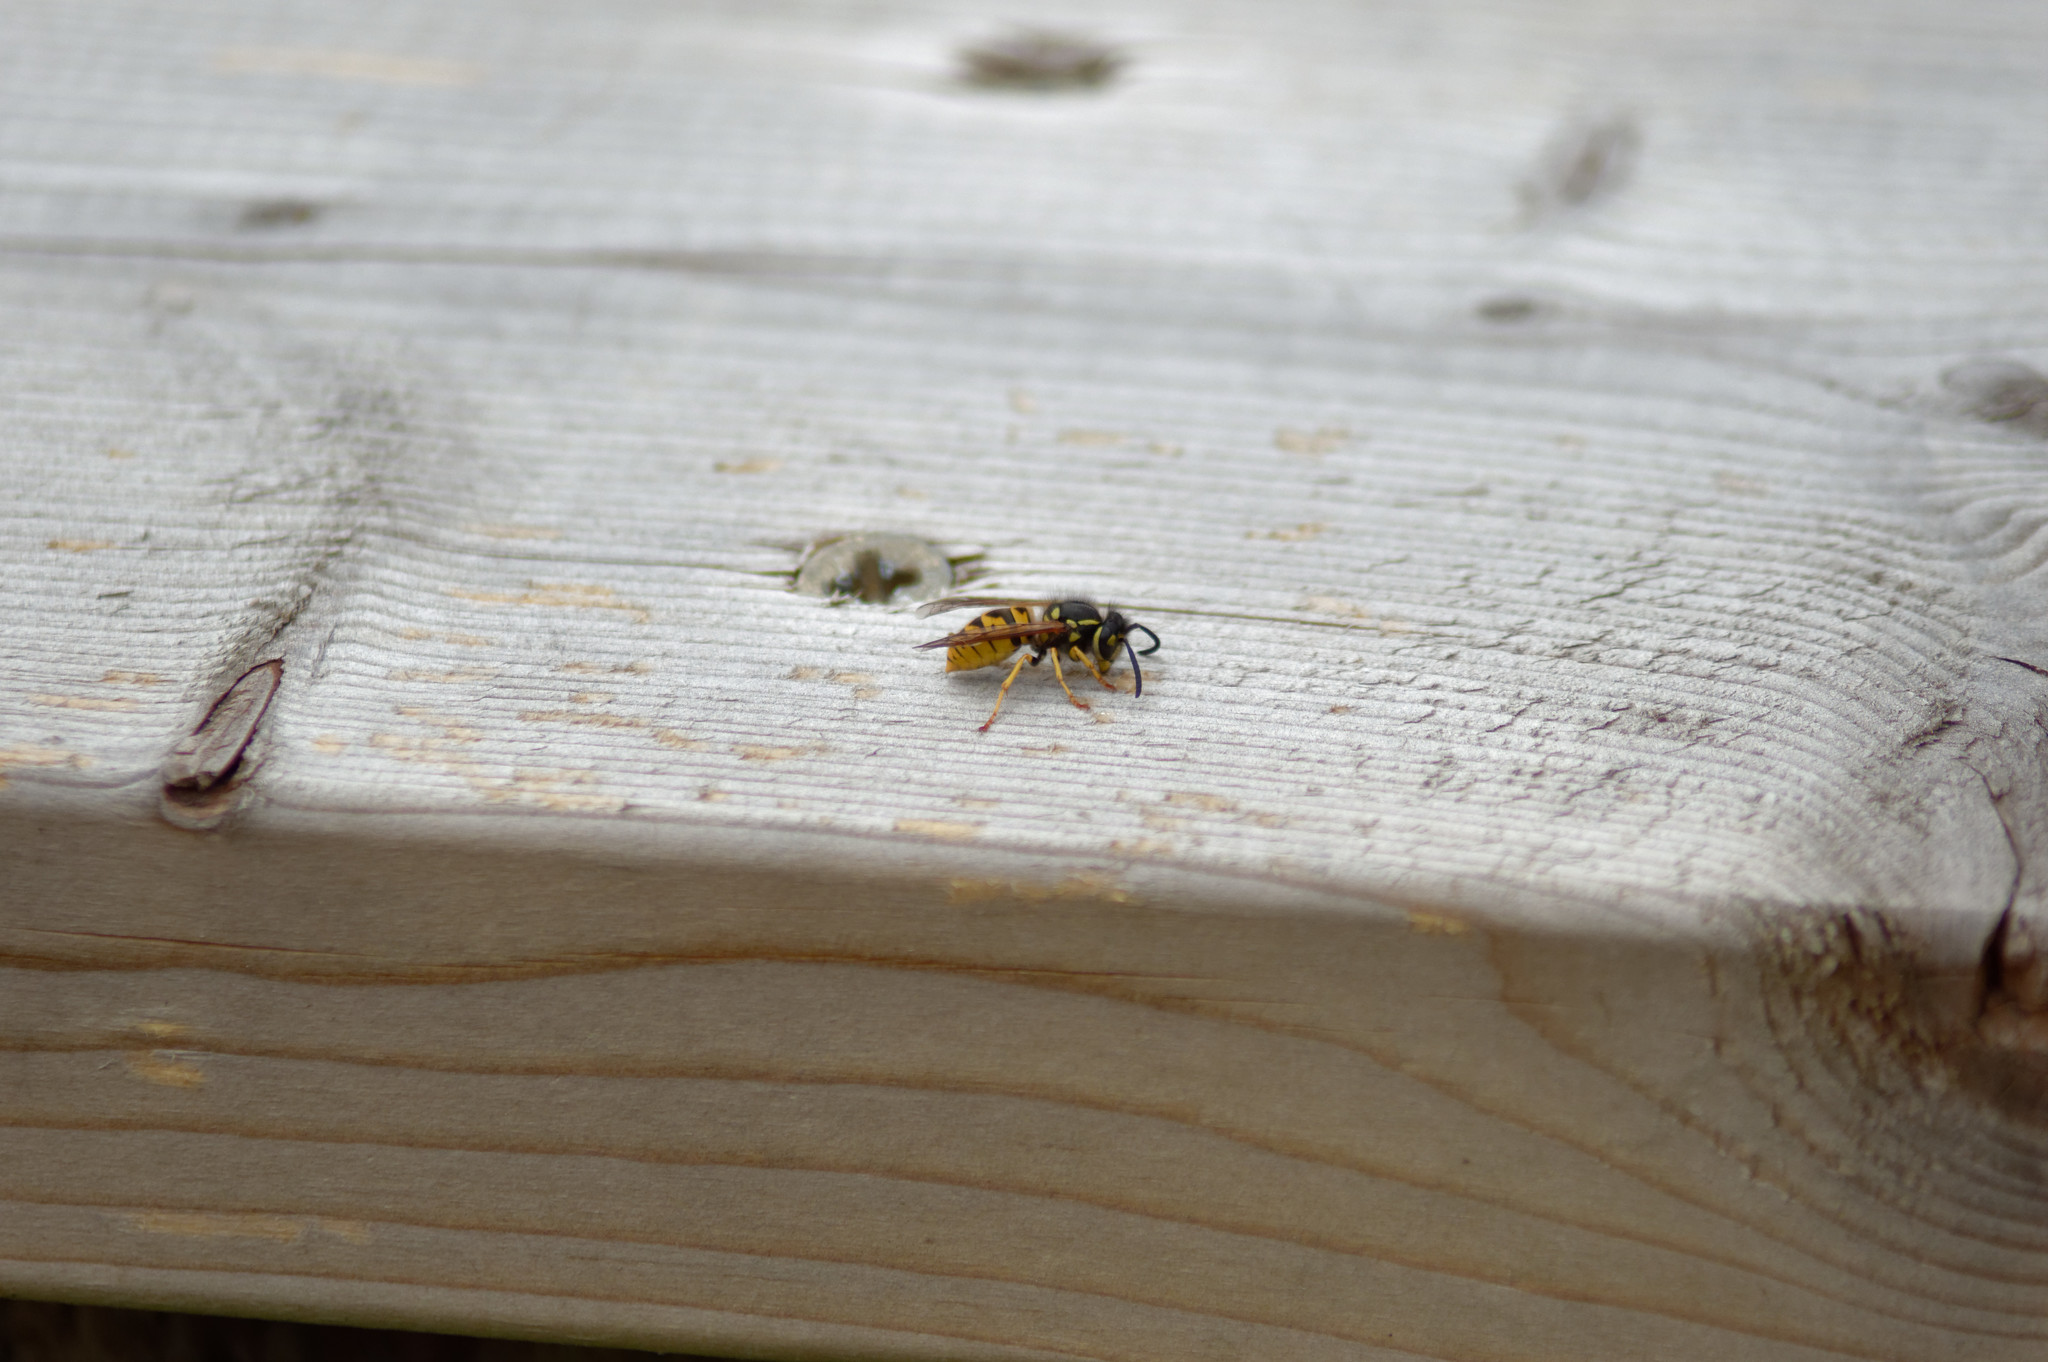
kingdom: Animalia
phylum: Arthropoda
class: Insecta
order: Hymenoptera
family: Vespidae
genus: Vespula
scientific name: Vespula germanica
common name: German wasp
